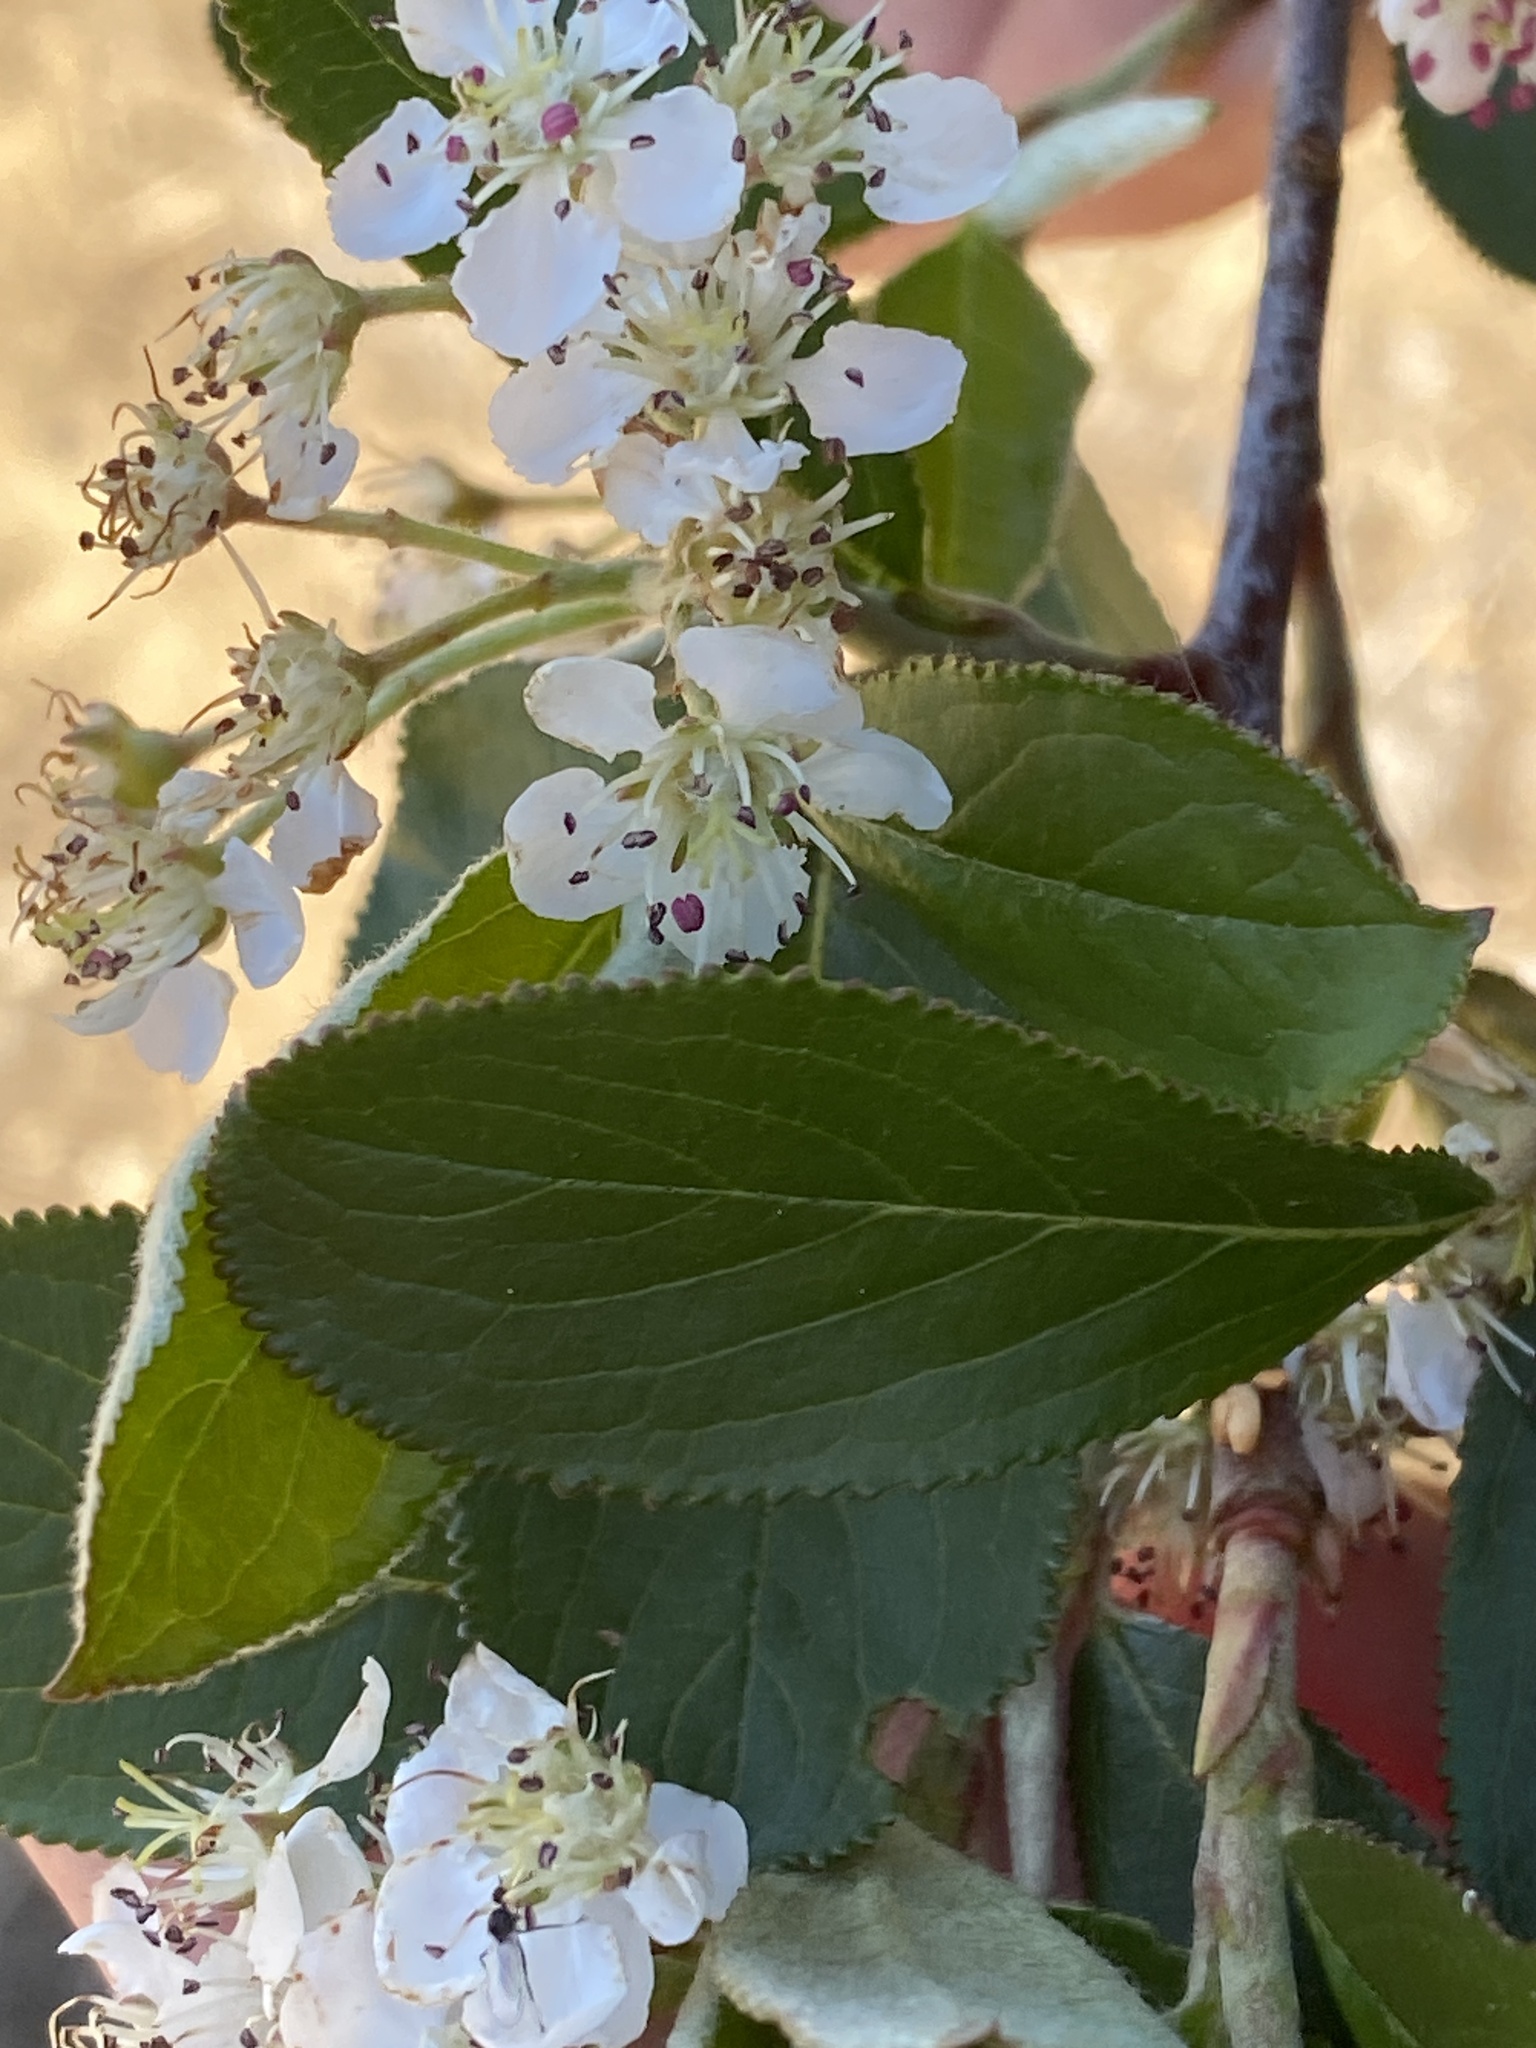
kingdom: Plantae
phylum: Tracheophyta
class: Magnoliopsida
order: Rosales
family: Rosaceae
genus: Aronia
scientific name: Aronia arbutifolia
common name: Red chokeberry
